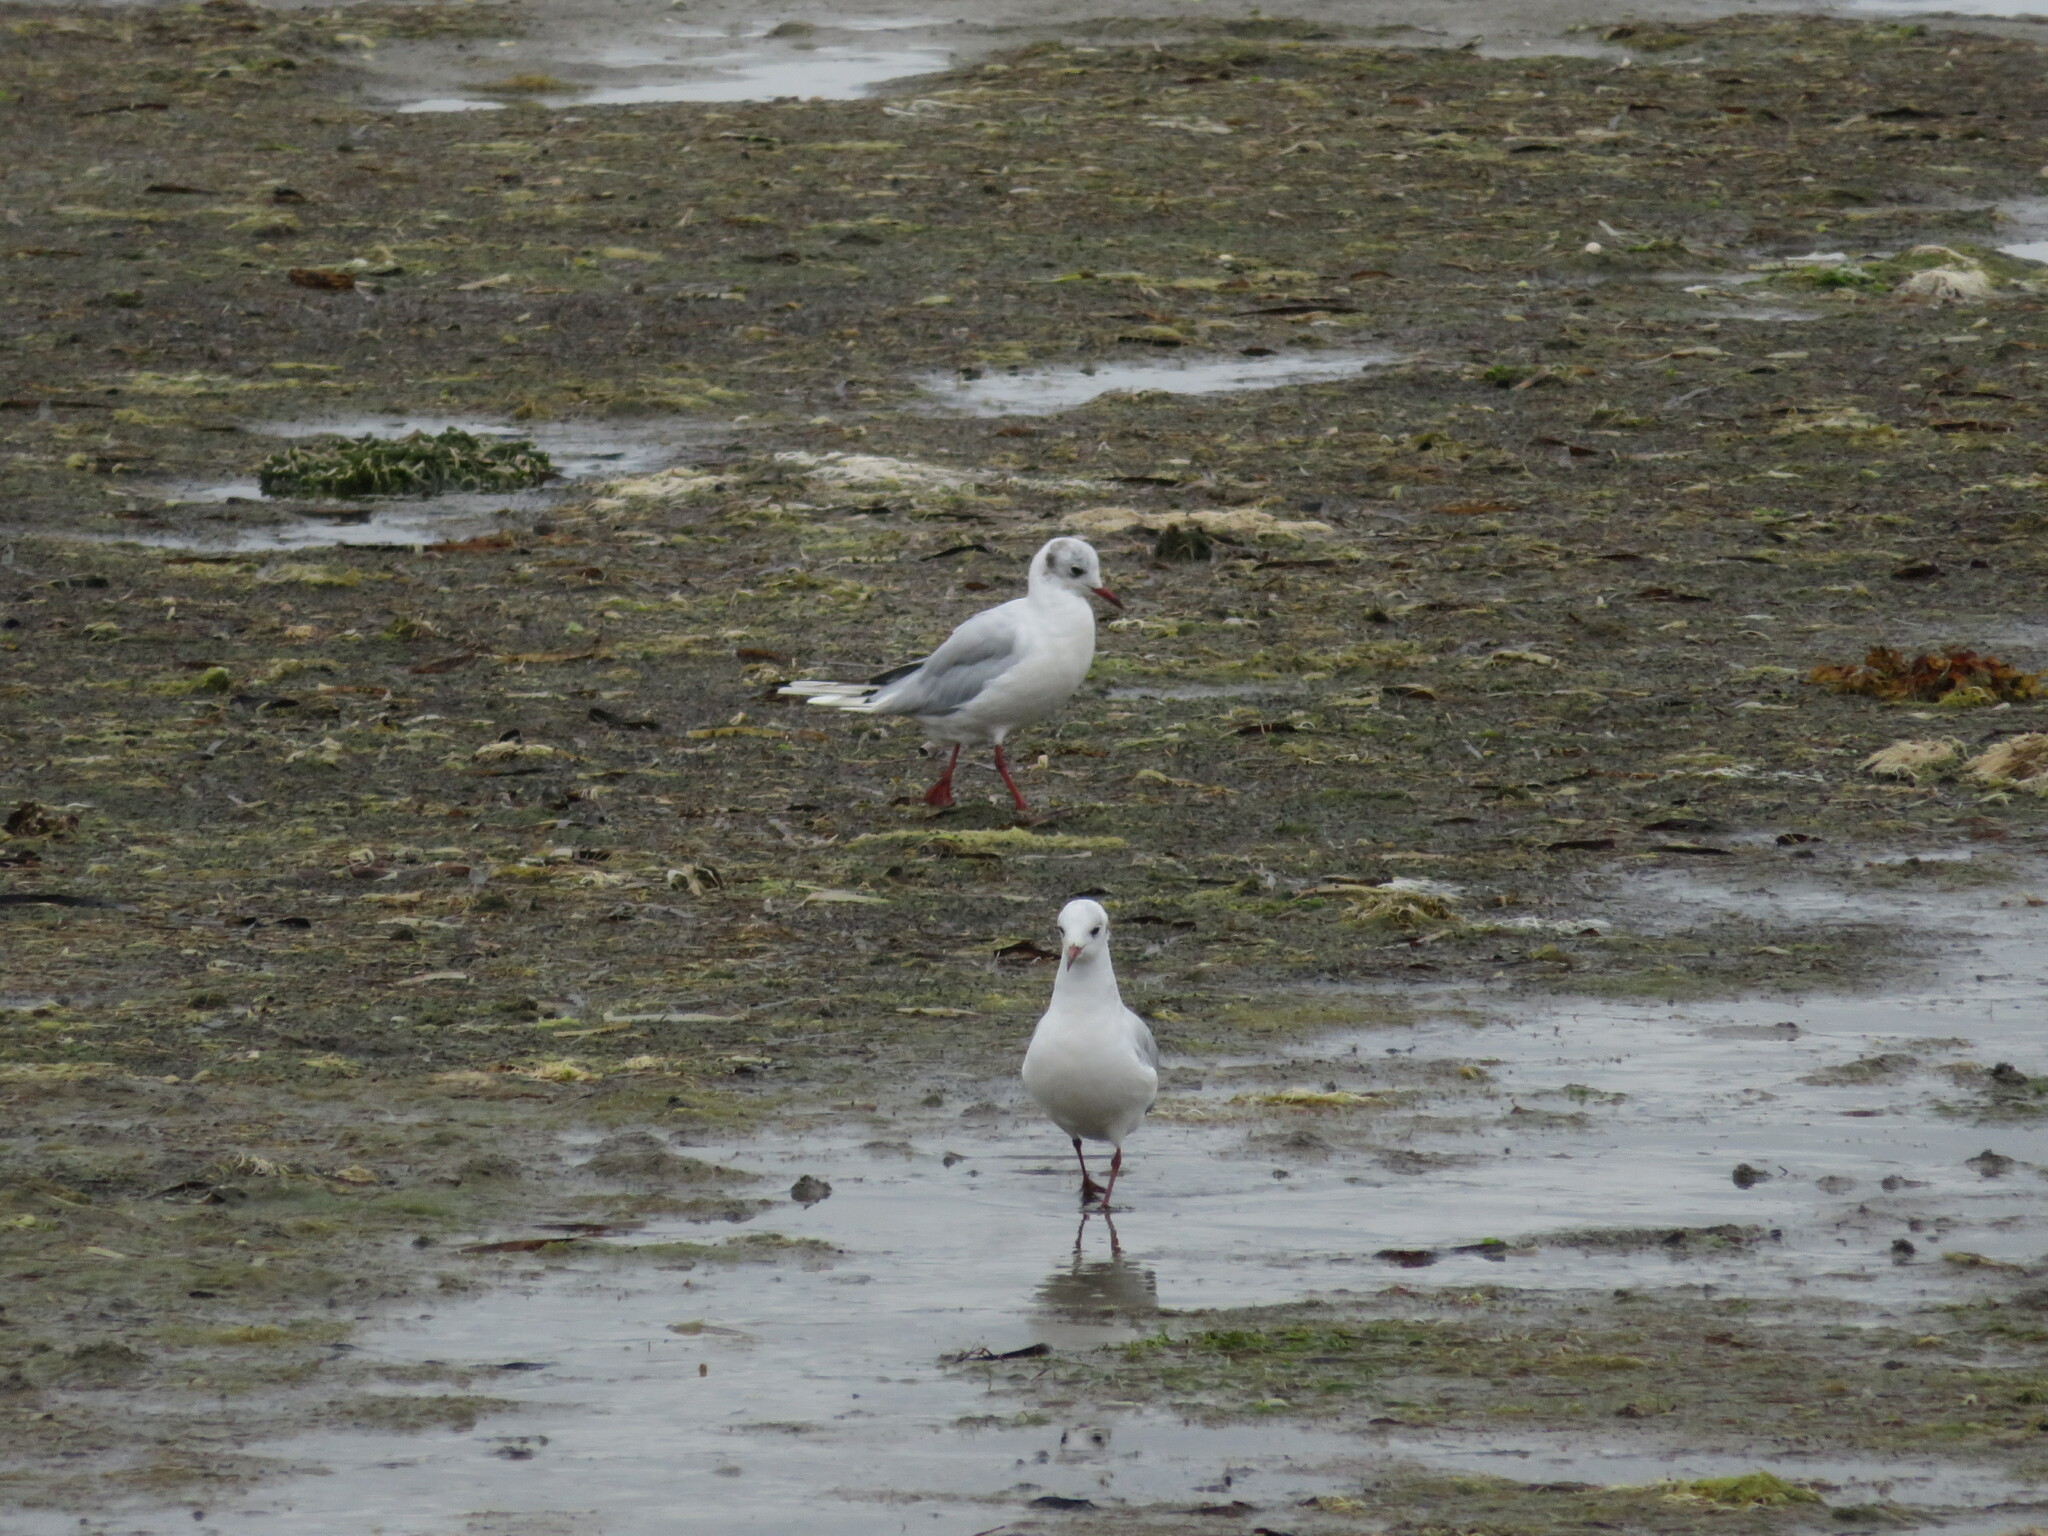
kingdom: Animalia
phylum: Chordata
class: Aves
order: Charadriiformes
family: Laridae
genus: Chroicocephalus
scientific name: Chroicocephalus ridibundus
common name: Black-headed gull
